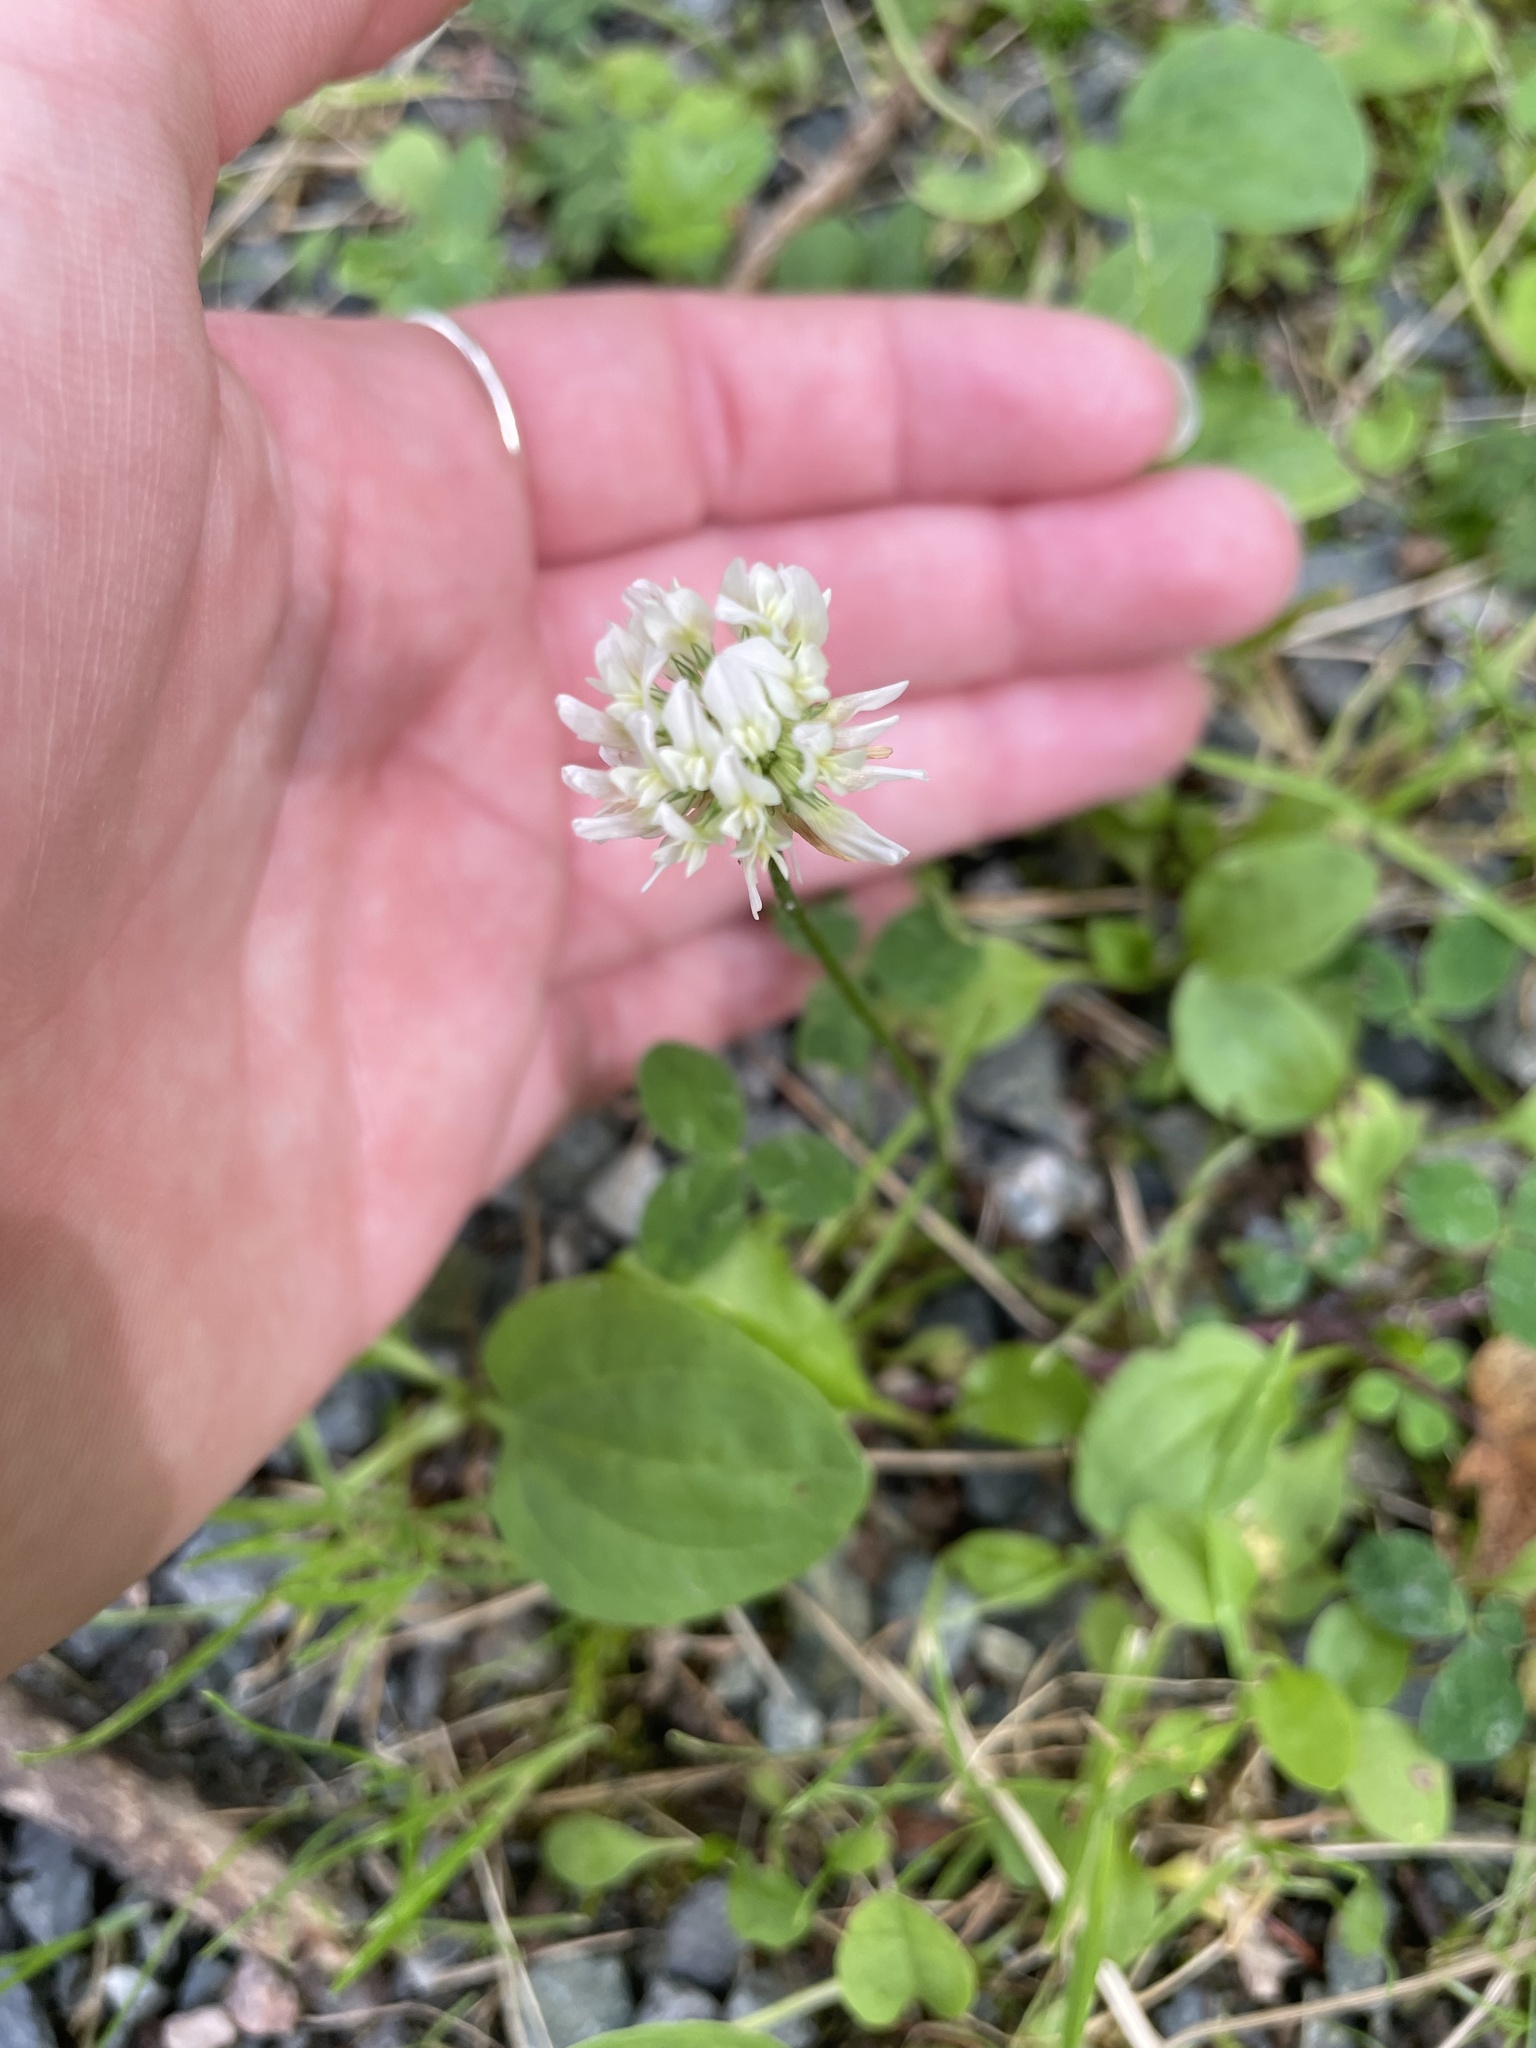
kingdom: Plantae
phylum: Tracheophyta
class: Magnoliopsida
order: Fabales
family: Fabaceae
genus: Trifolium
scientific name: Trifolium repens
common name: White clover
